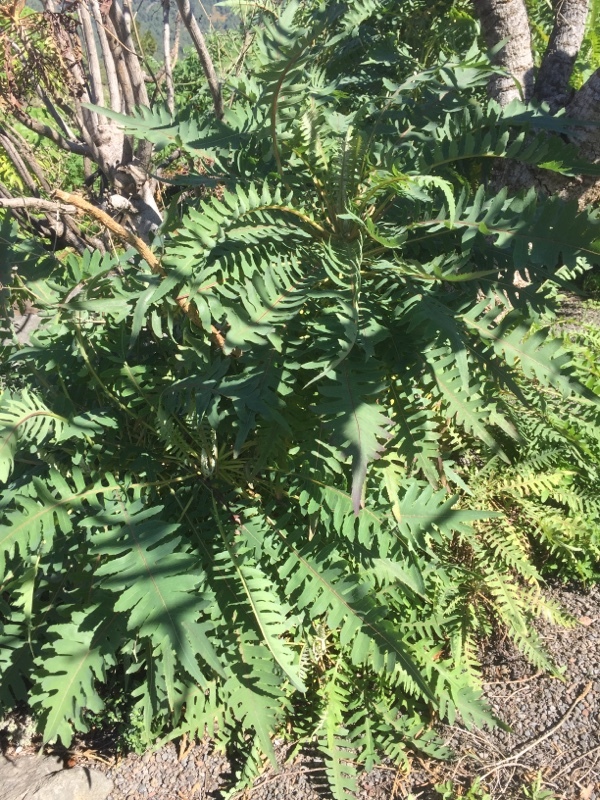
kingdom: Plantae
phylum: Tracheophyta
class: Magnoliopsida
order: Asterales
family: Asteraceae
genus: Sonchus
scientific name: Sonchus palmensis
